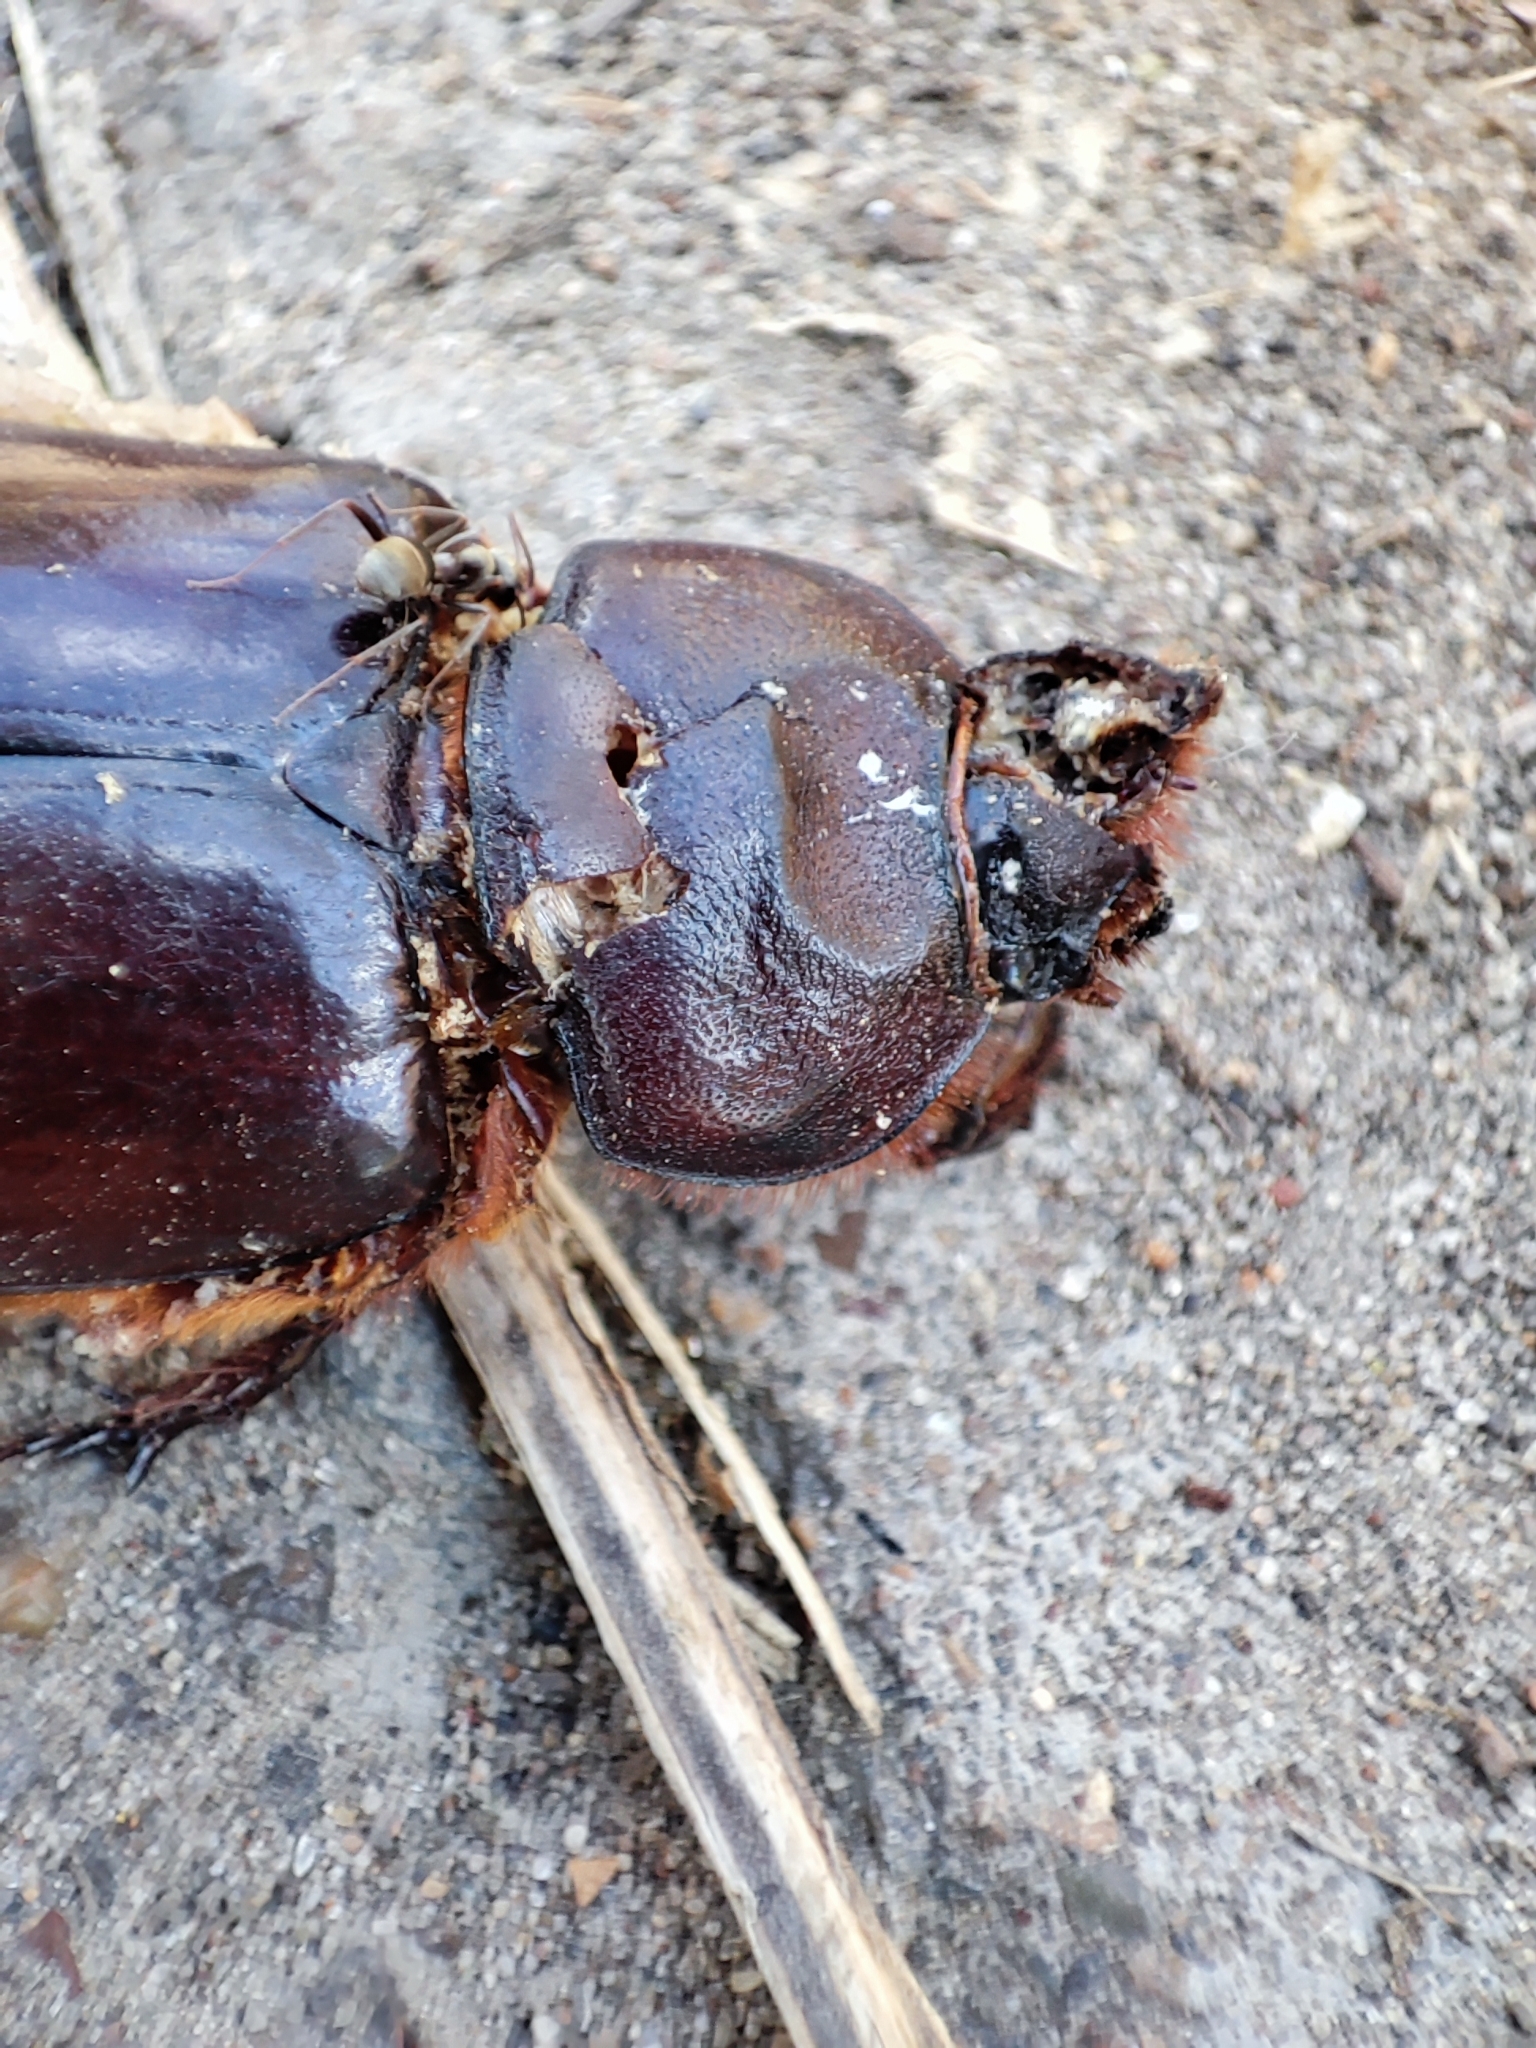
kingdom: Animalia
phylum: Arthropoda
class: Insecta
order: Coleoptera
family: Scarabaeidae
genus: Oryctes
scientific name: Oryctes nasicornis
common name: European rhinoceros beetle
